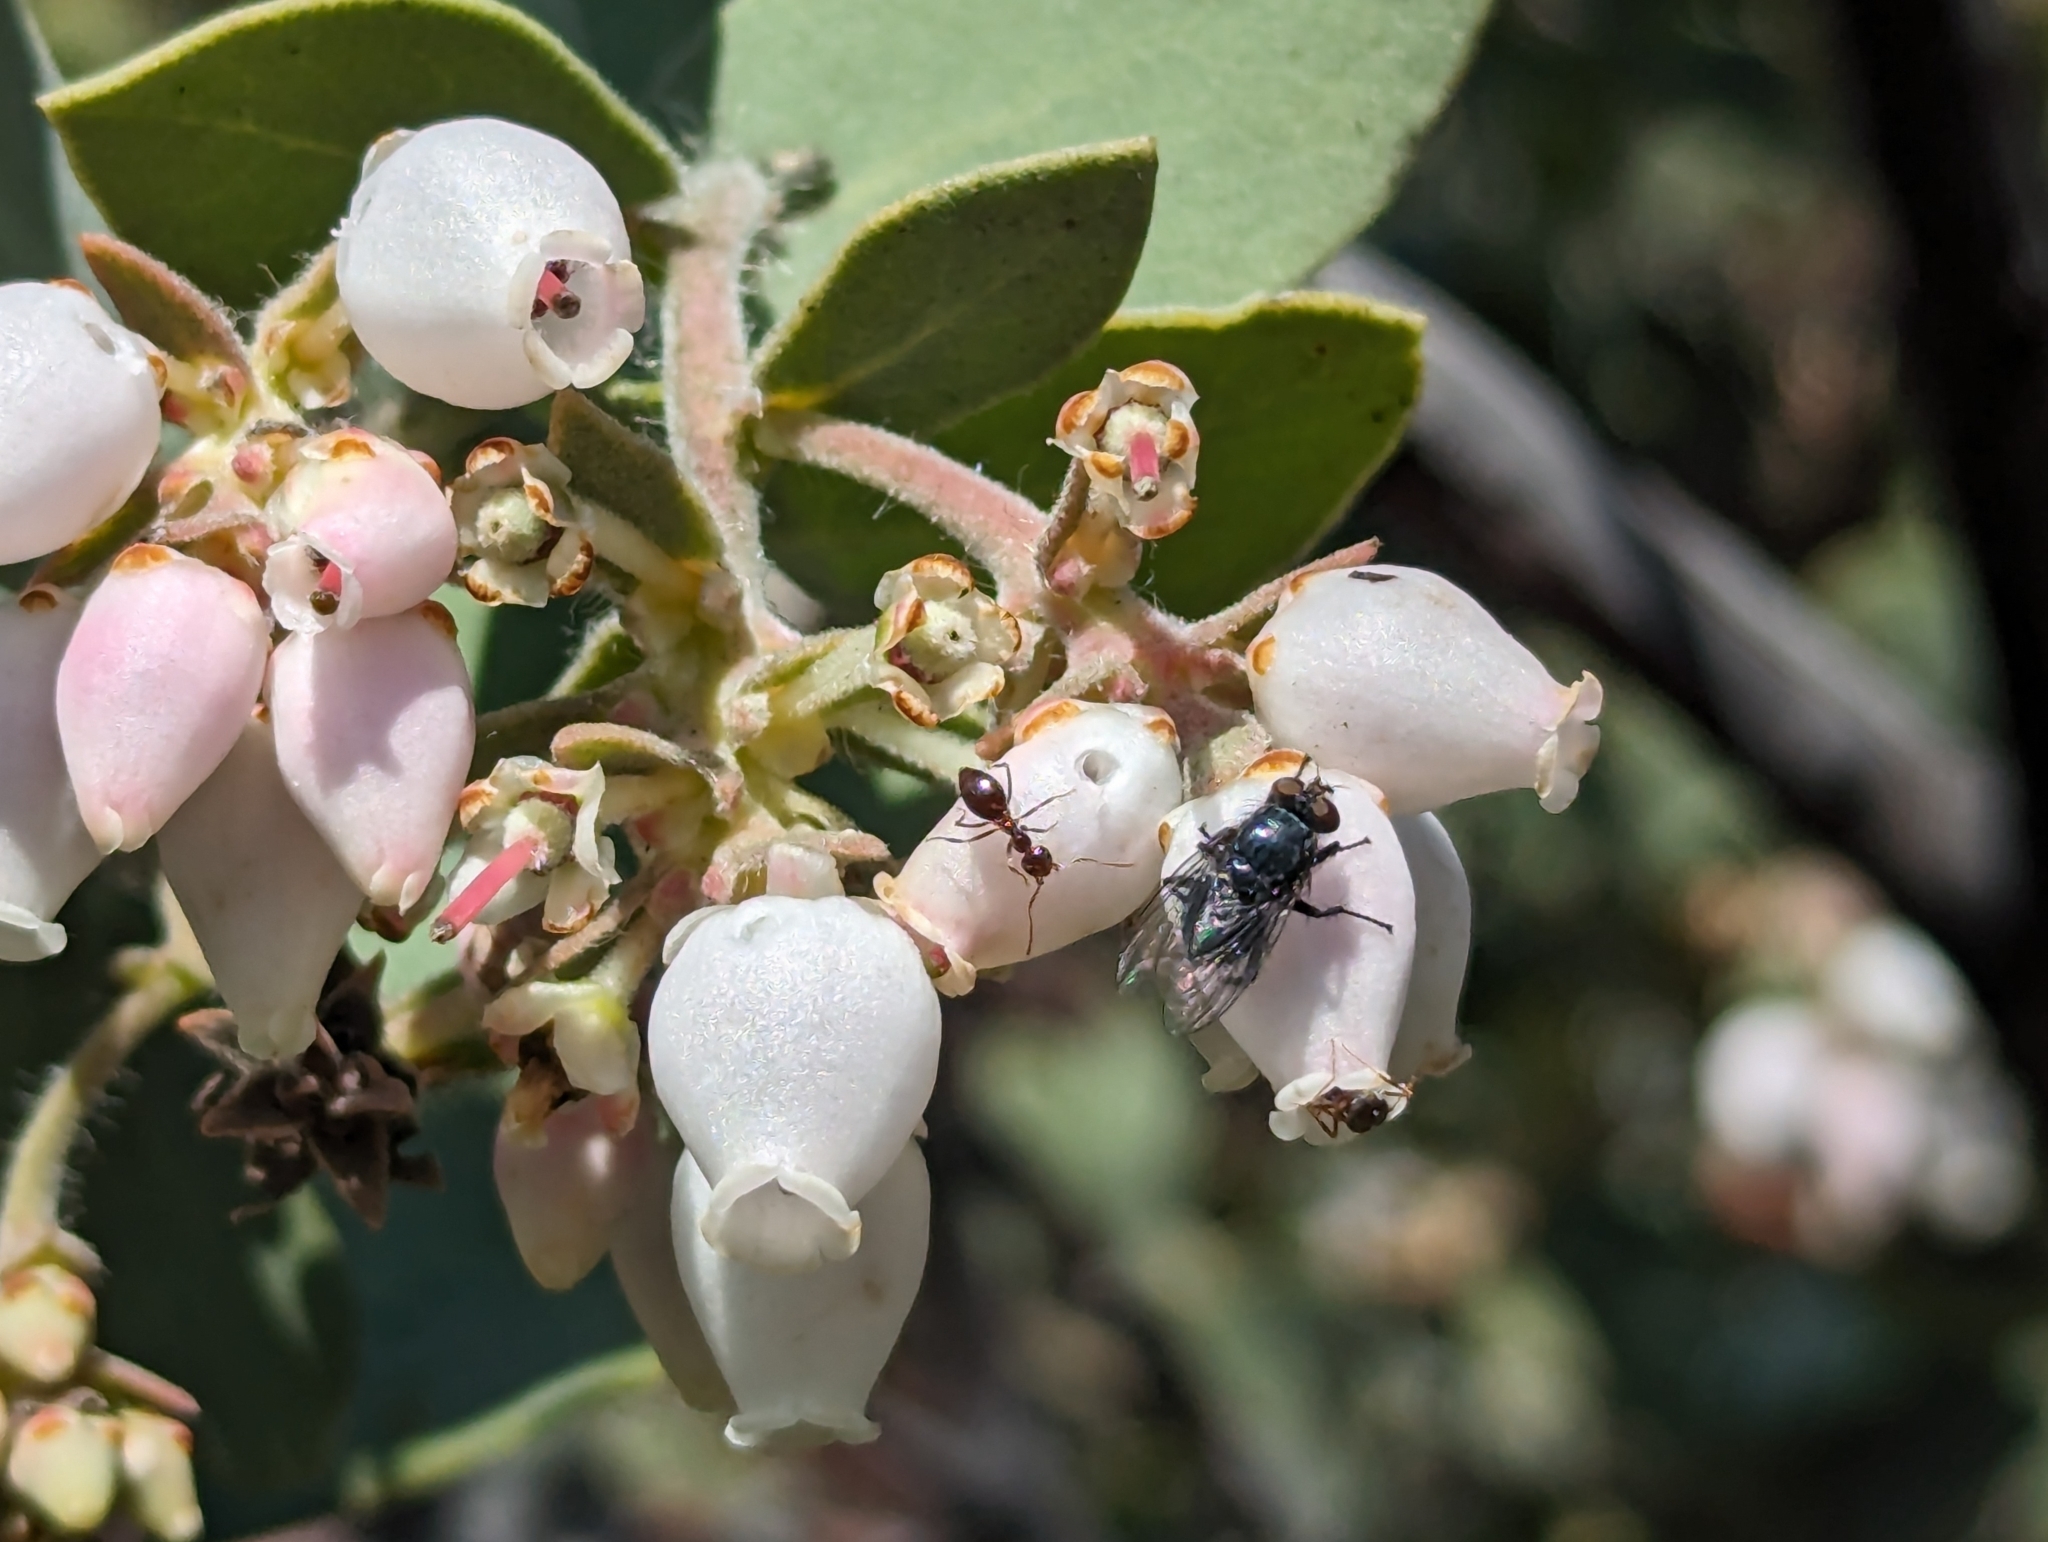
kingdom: Plantae
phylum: Tracheophyta
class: Magnoliopsida
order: Ericales
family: Ericaceae
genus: Arctostaphylos
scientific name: Arctostaphylos auriculata
